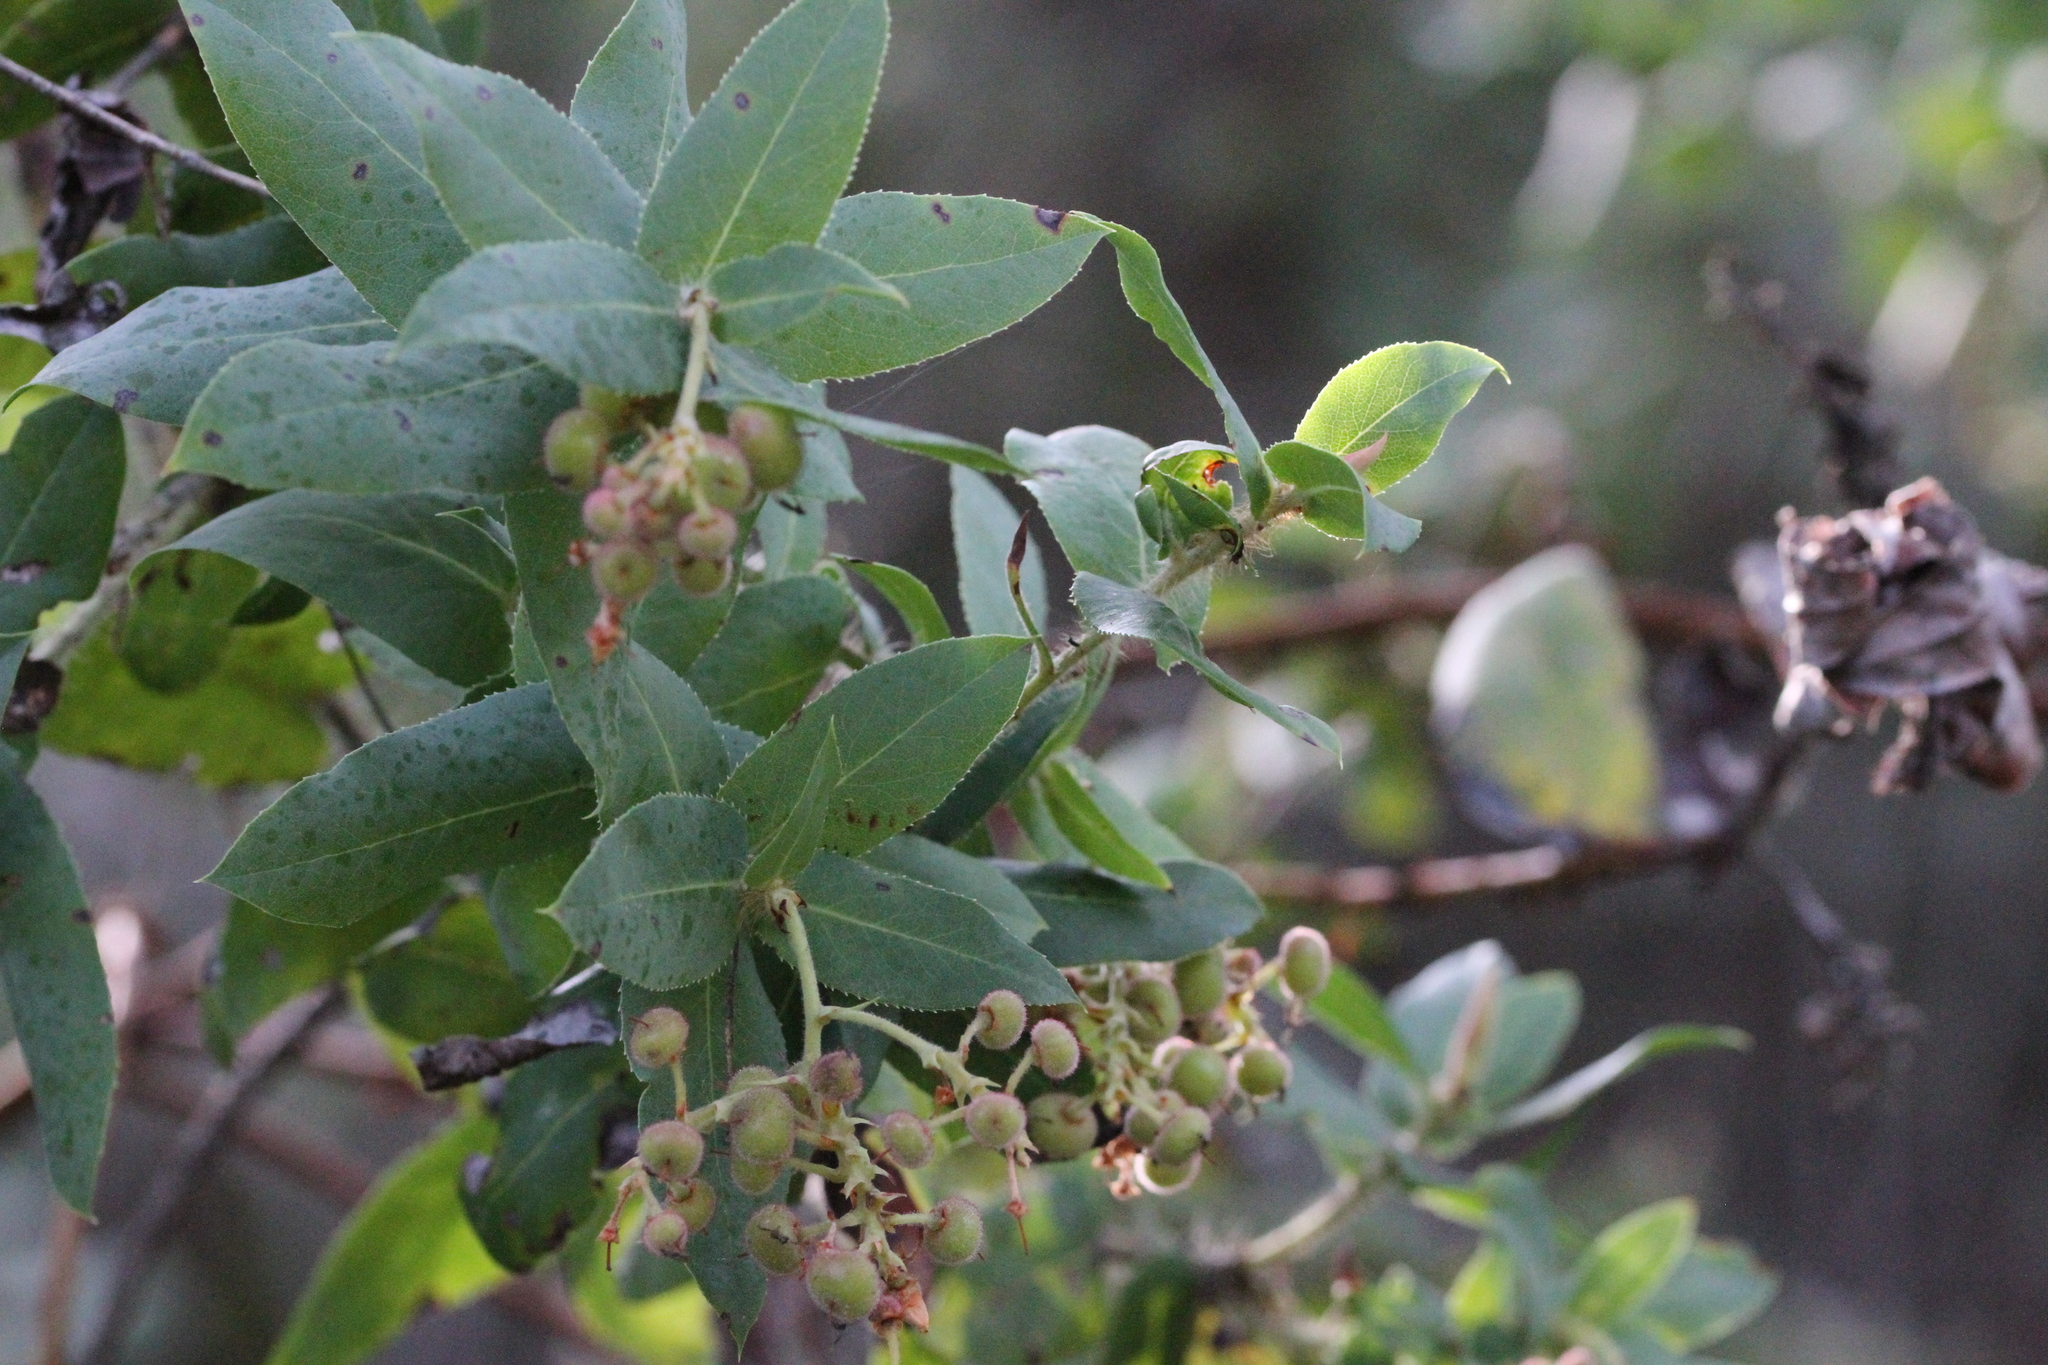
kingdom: Plantae
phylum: Tracheophyta
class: Magnoliopsida
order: Ericales
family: Ericaceae
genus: Arctostaphylos
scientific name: Arctostaphylos andersonii
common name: Santa cruz manzanita
